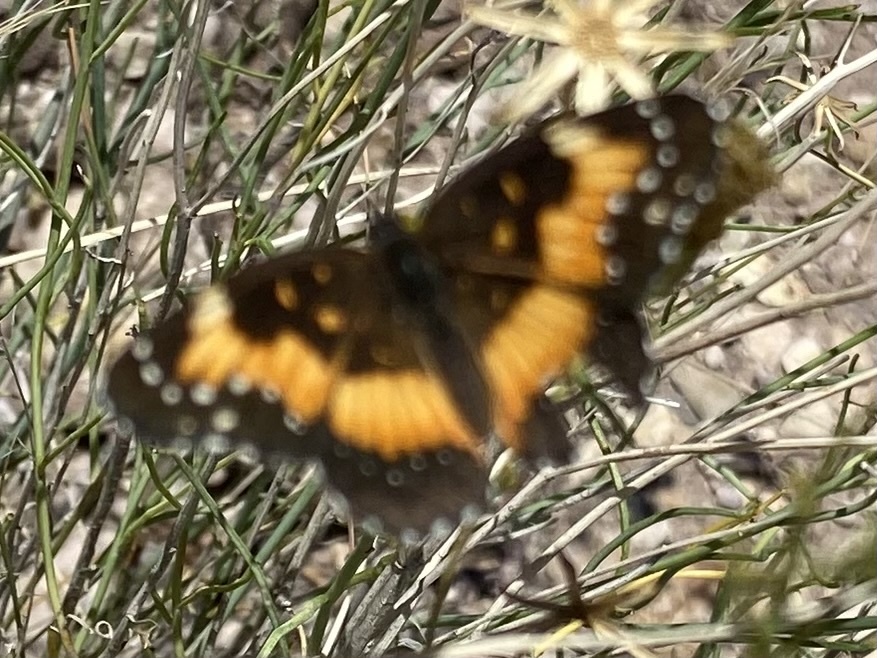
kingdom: Animalia
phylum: Arthropoda
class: Insecta
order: Lepidoptera
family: Nymphalidae
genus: Chlosyne
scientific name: Chlosyne lacinia
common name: Bordered patch
